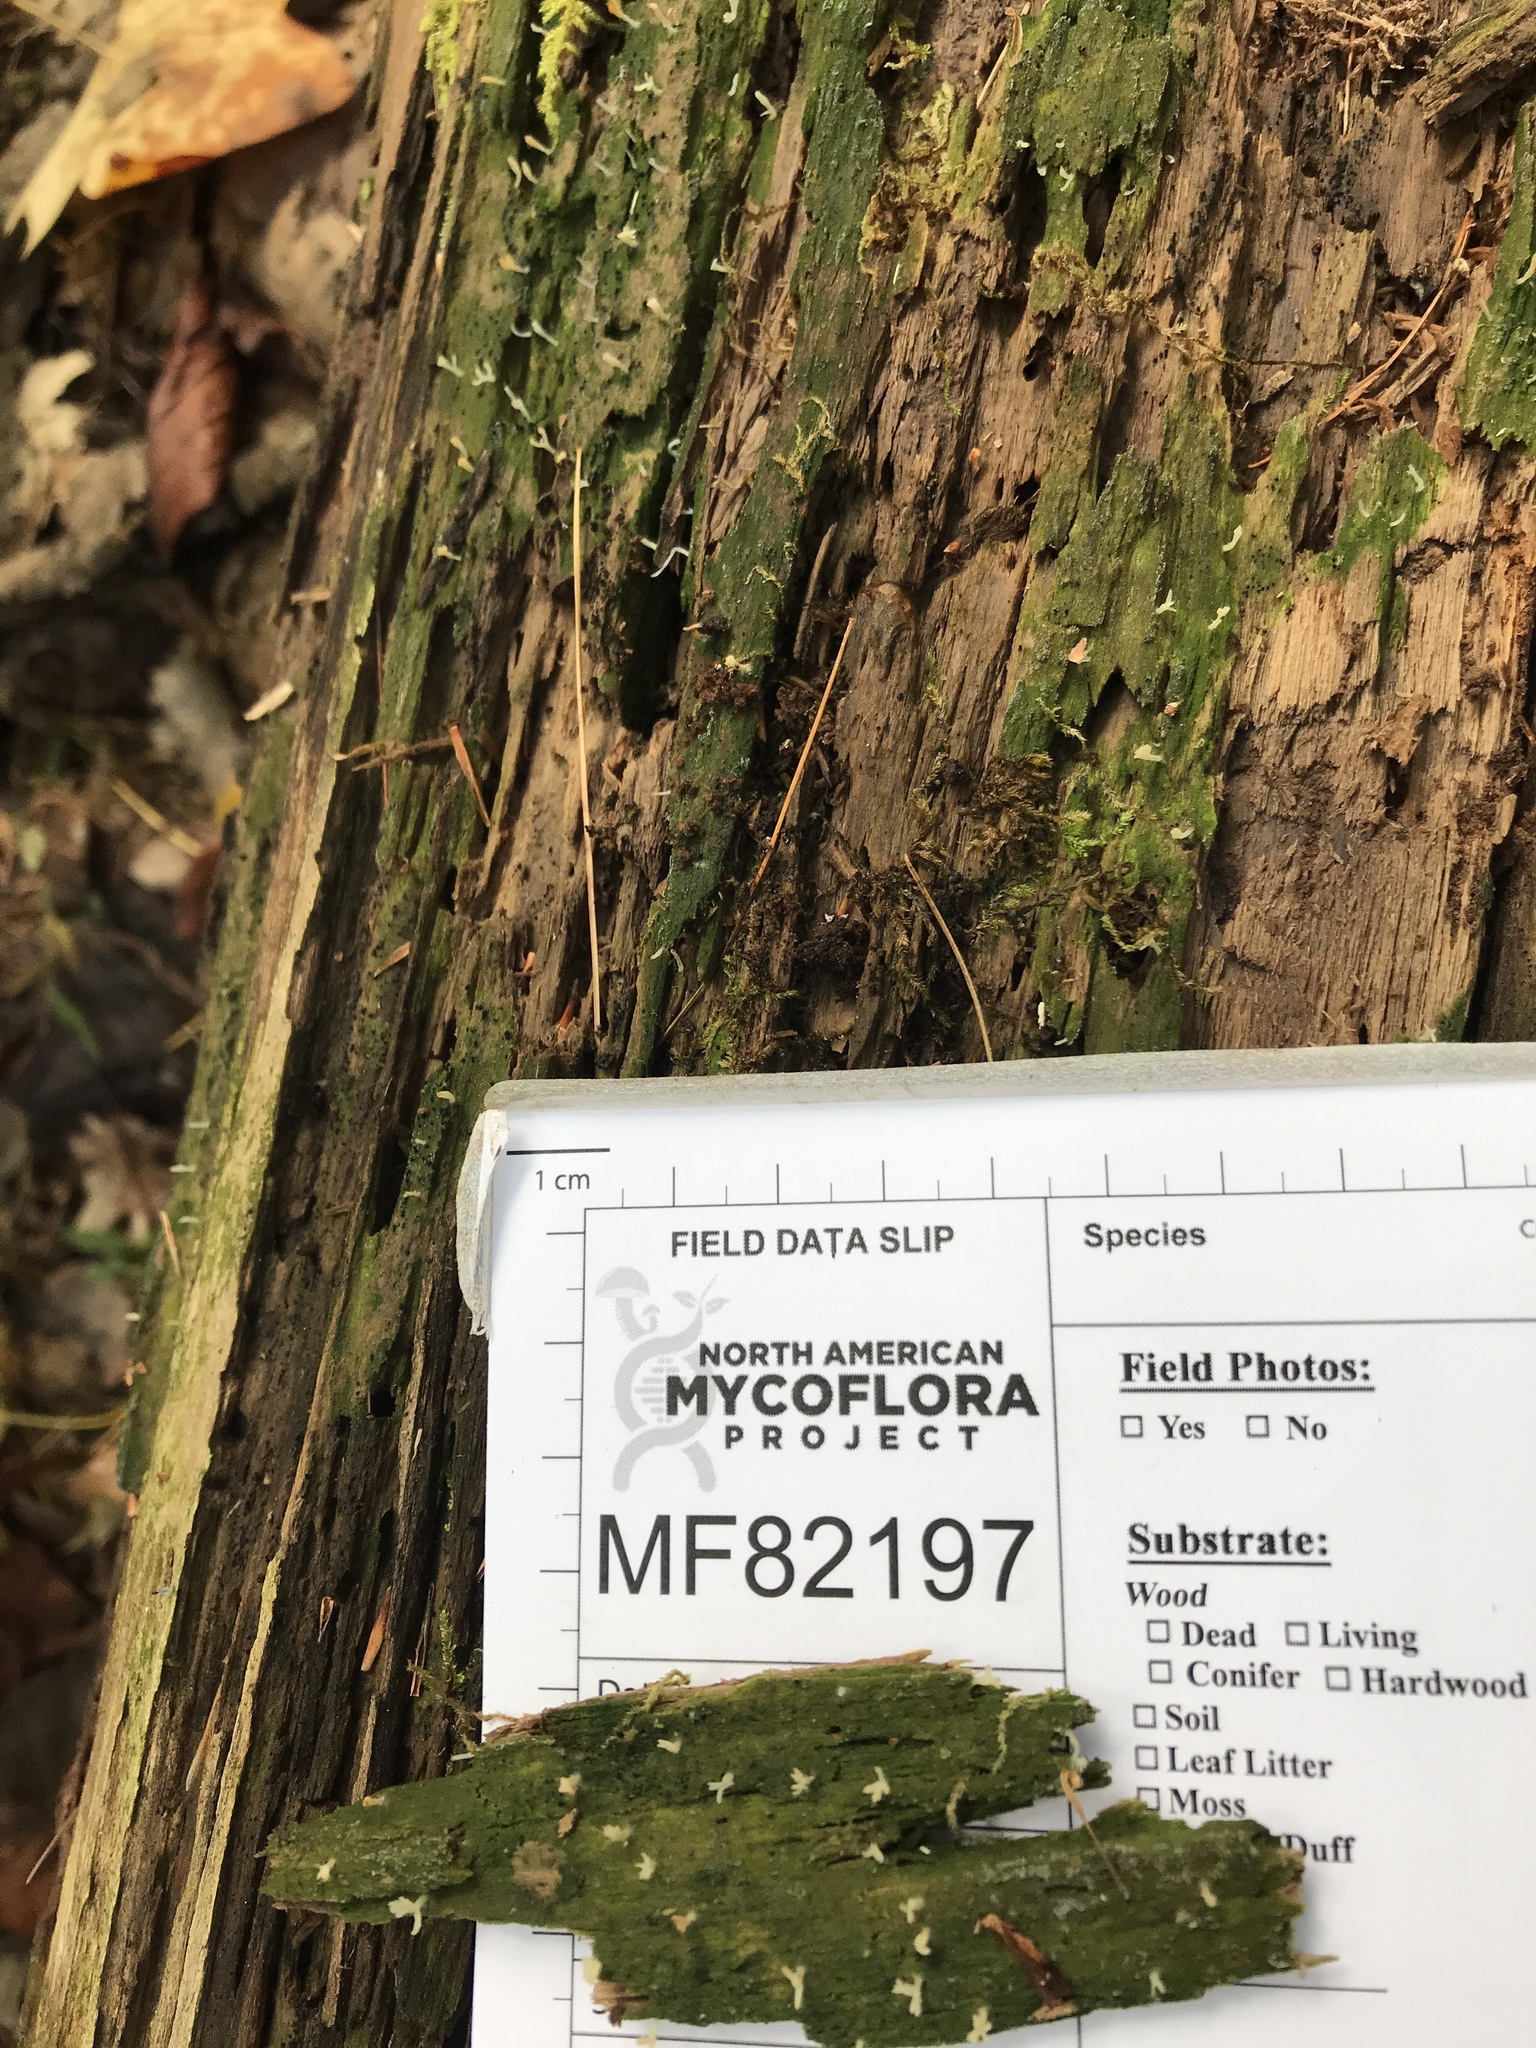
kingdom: Fungi
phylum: Basidiomycota
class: Agaricomycetes
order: Cantharellales
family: Hydnaceae
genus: Multiclavula
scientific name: Multiclavula mucida
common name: White green-algae coral
